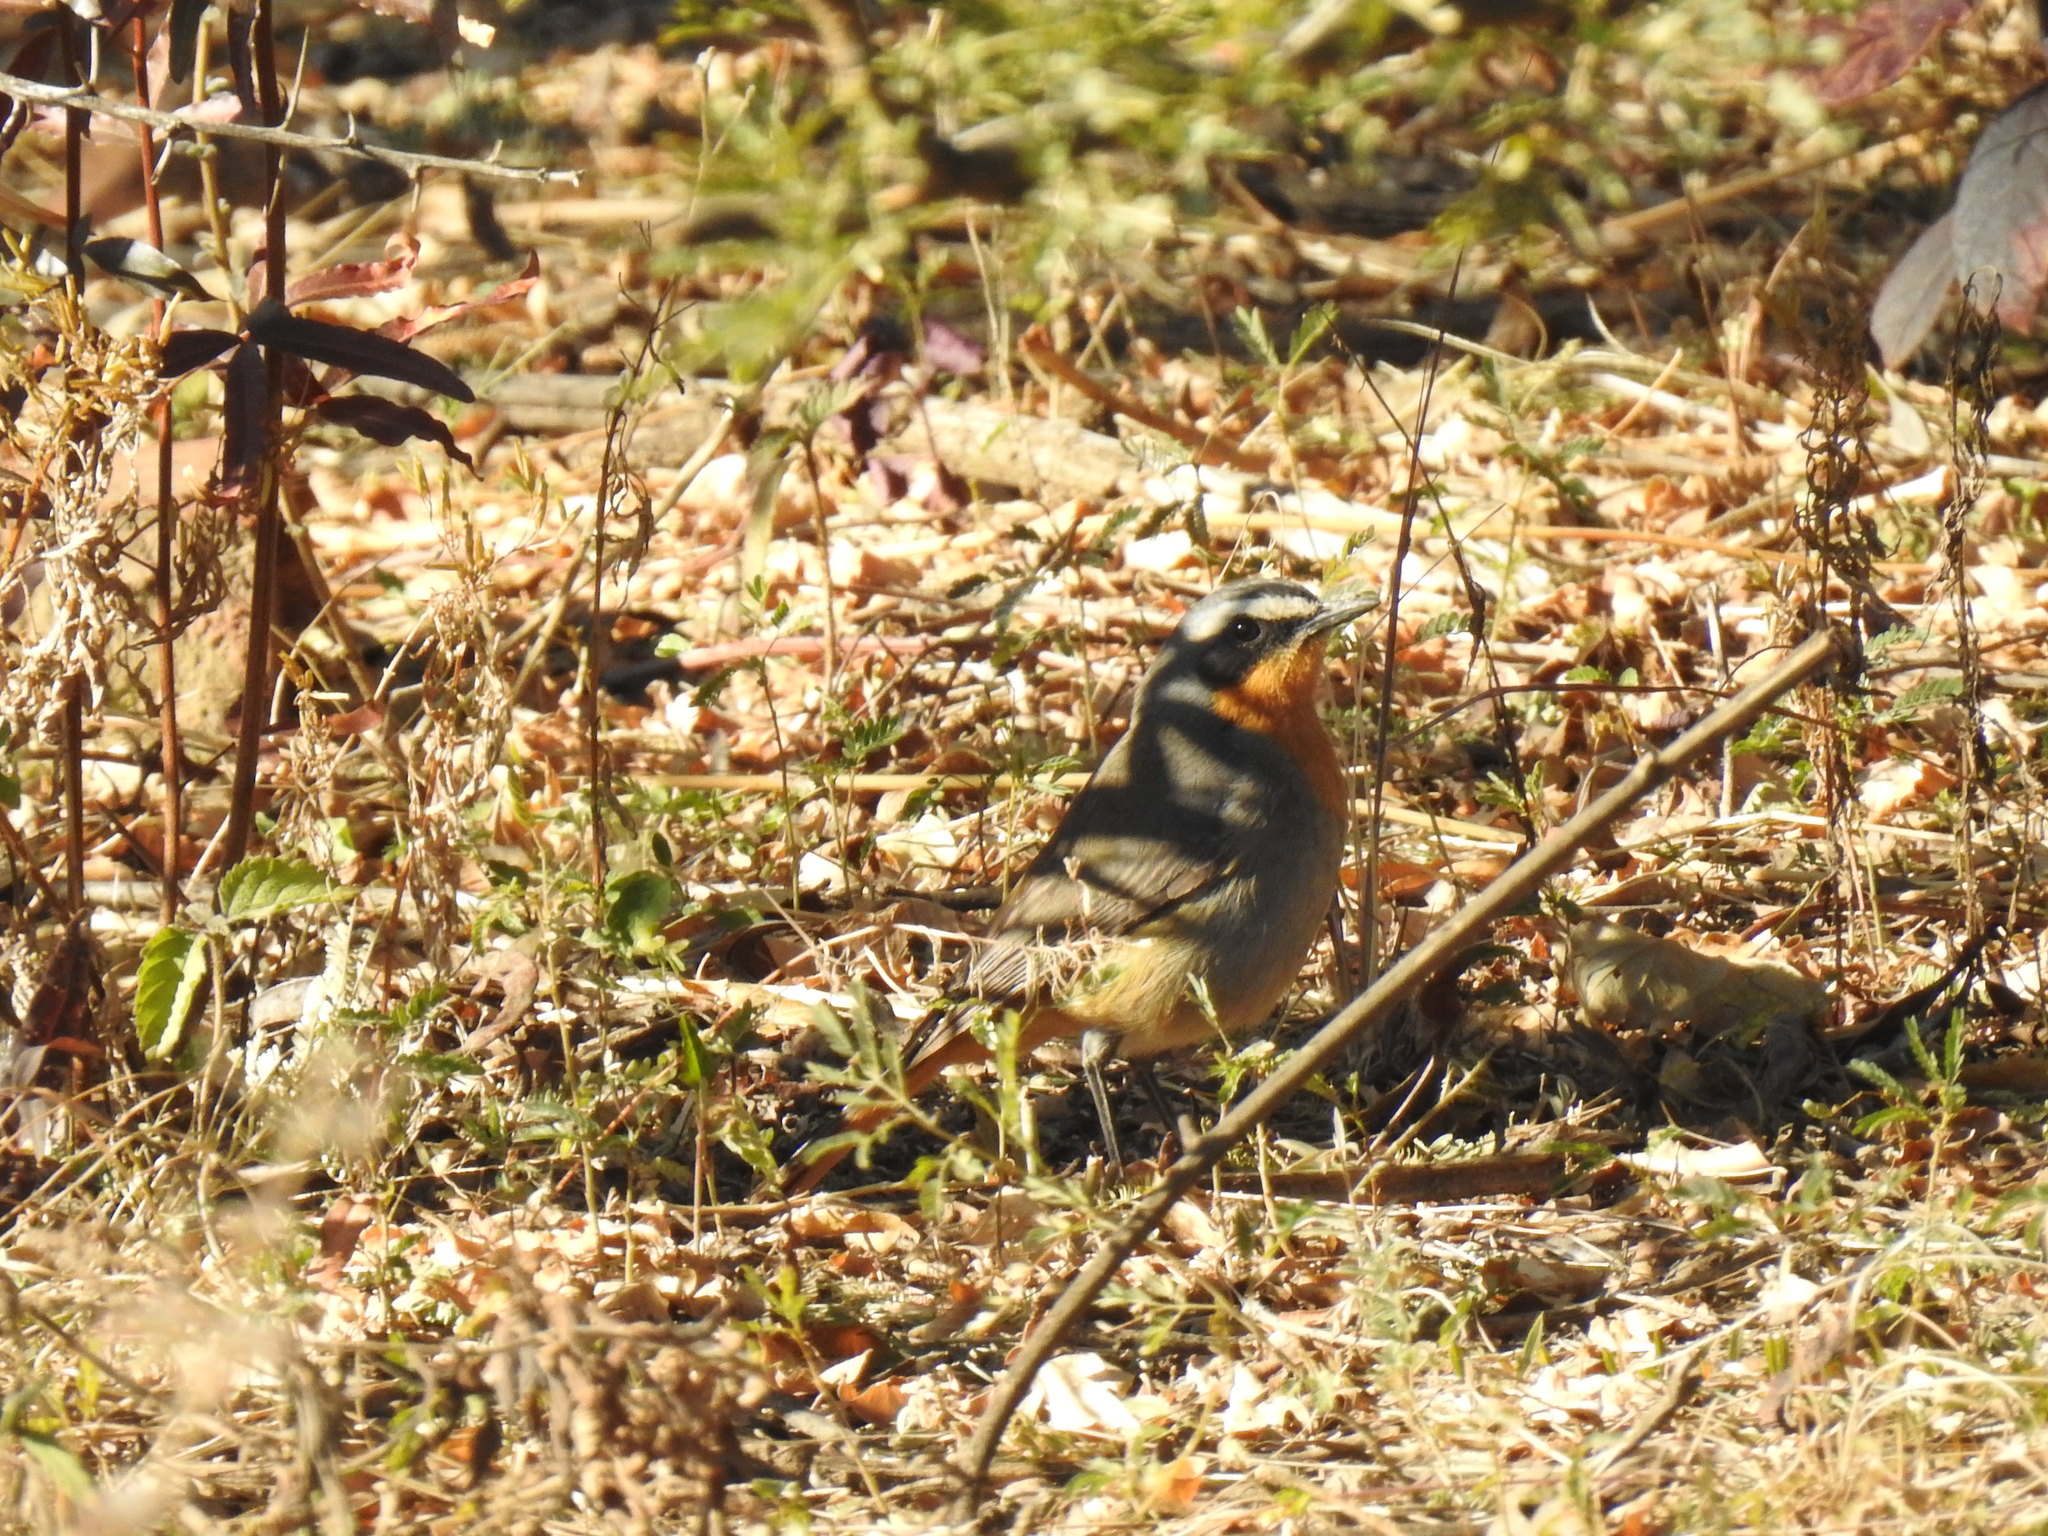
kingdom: Animalia
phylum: Chordata
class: Aves
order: Passeriformes
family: Muscicapidae
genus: Cossypha
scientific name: Cossypha caffra
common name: Cape robin-chat
